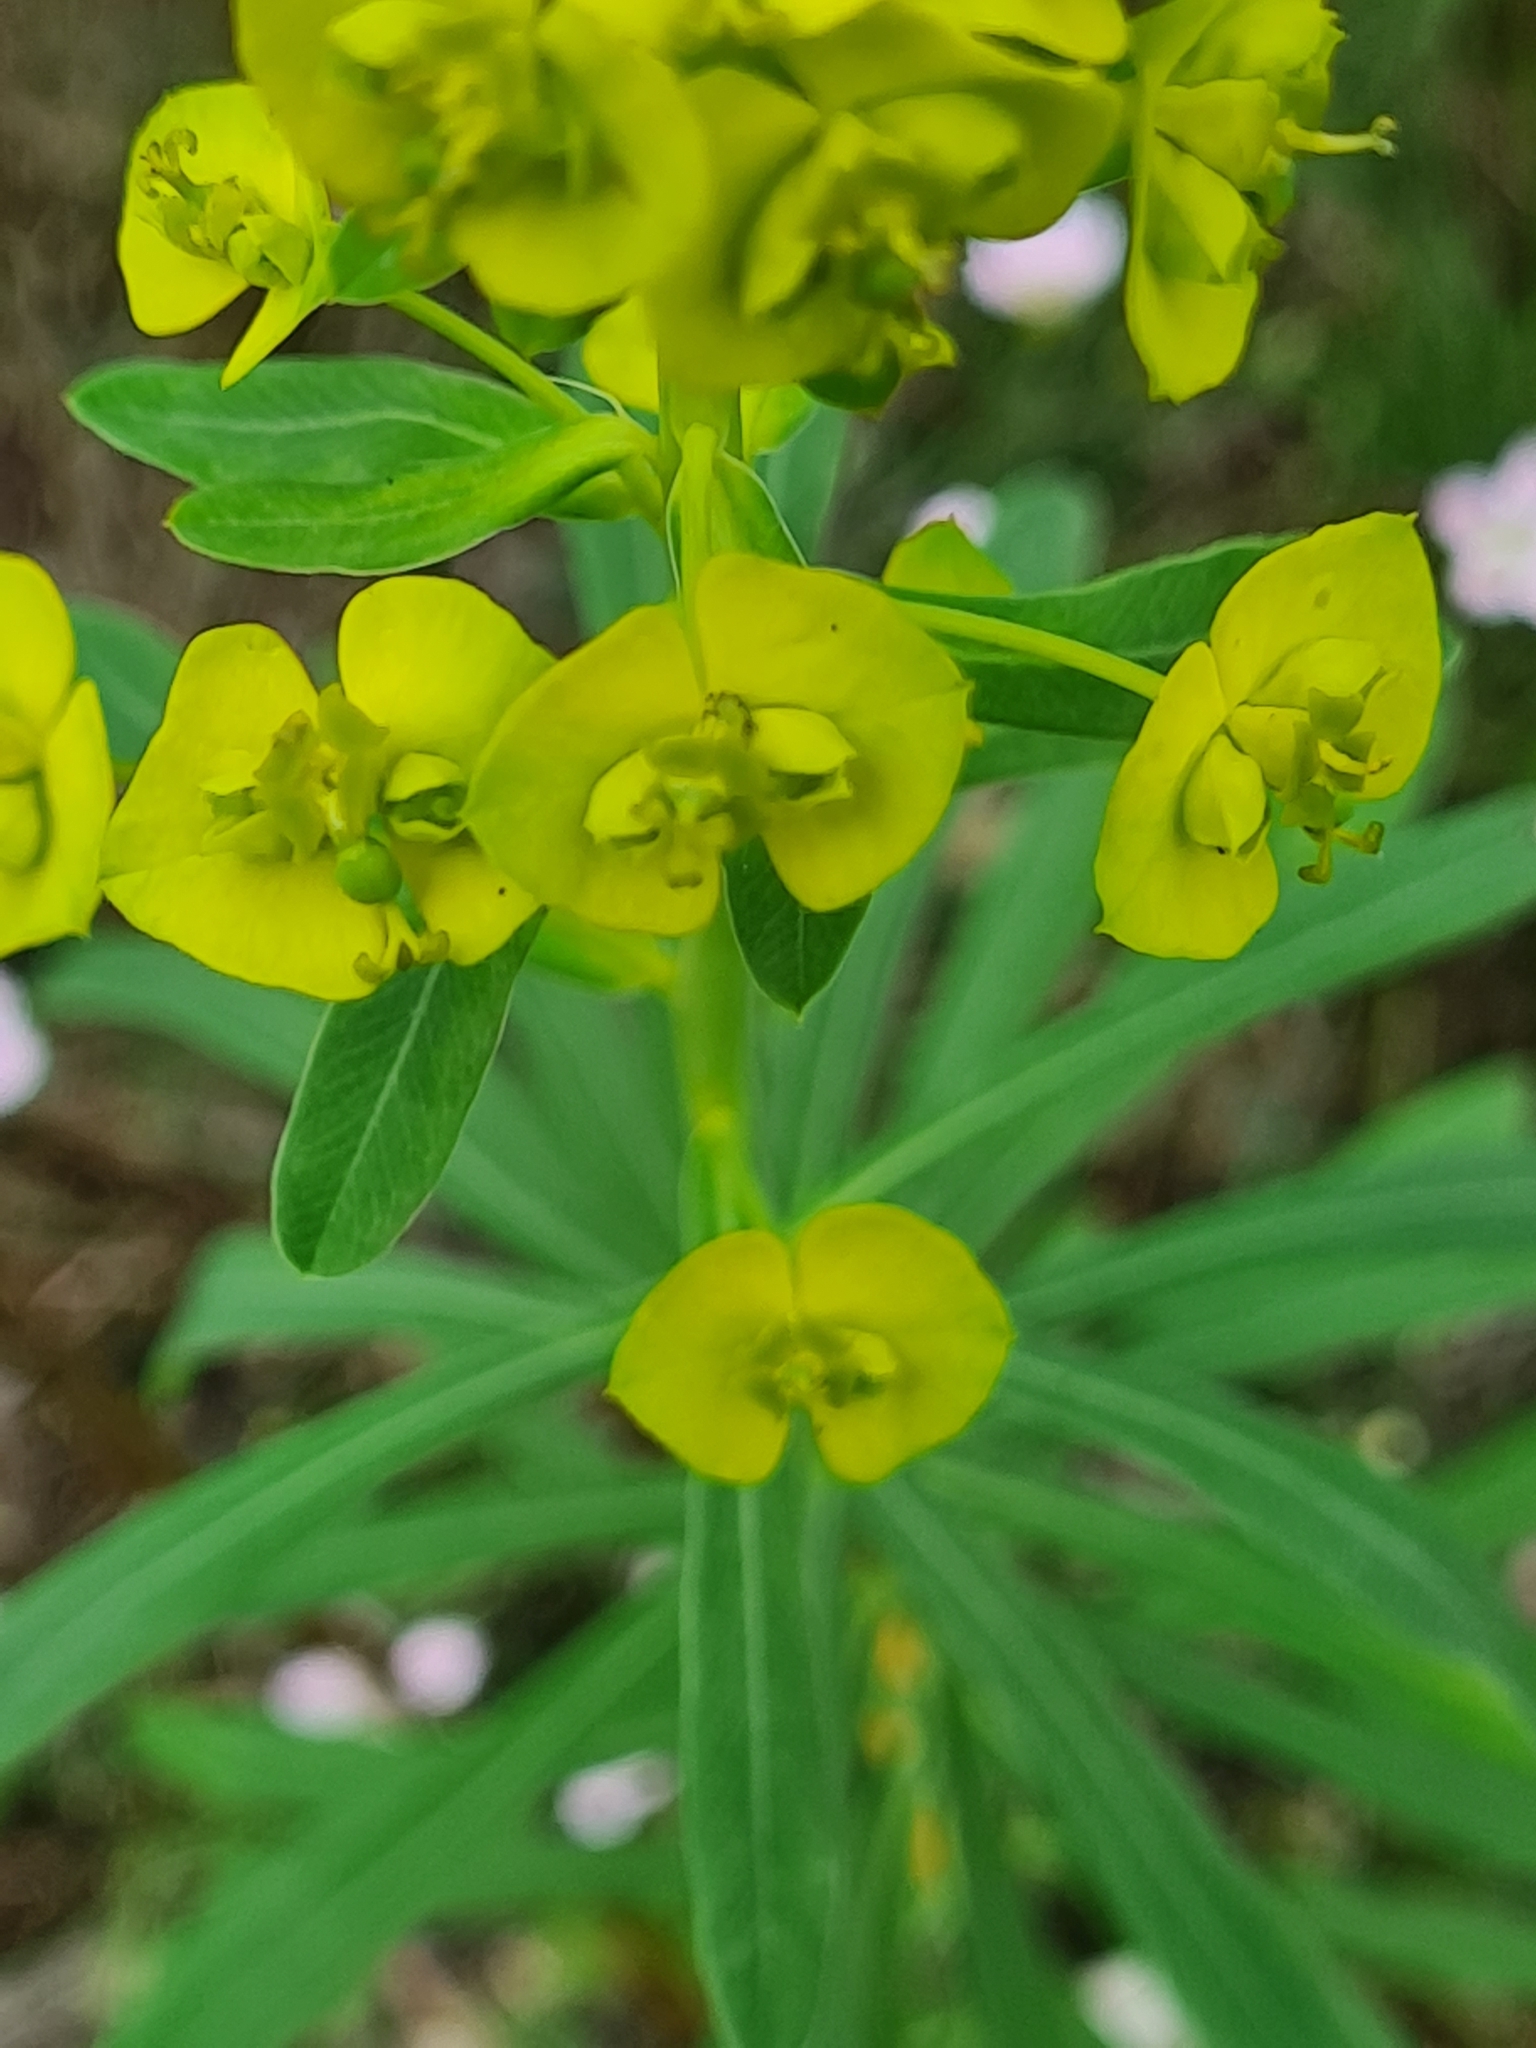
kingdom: Plantae
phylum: Tracheophyta
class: Magnoliopsida
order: Malpighiales
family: Euphorbiaceae
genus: Euphorbia
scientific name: Euphorbia esula
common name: Leafy spurge
